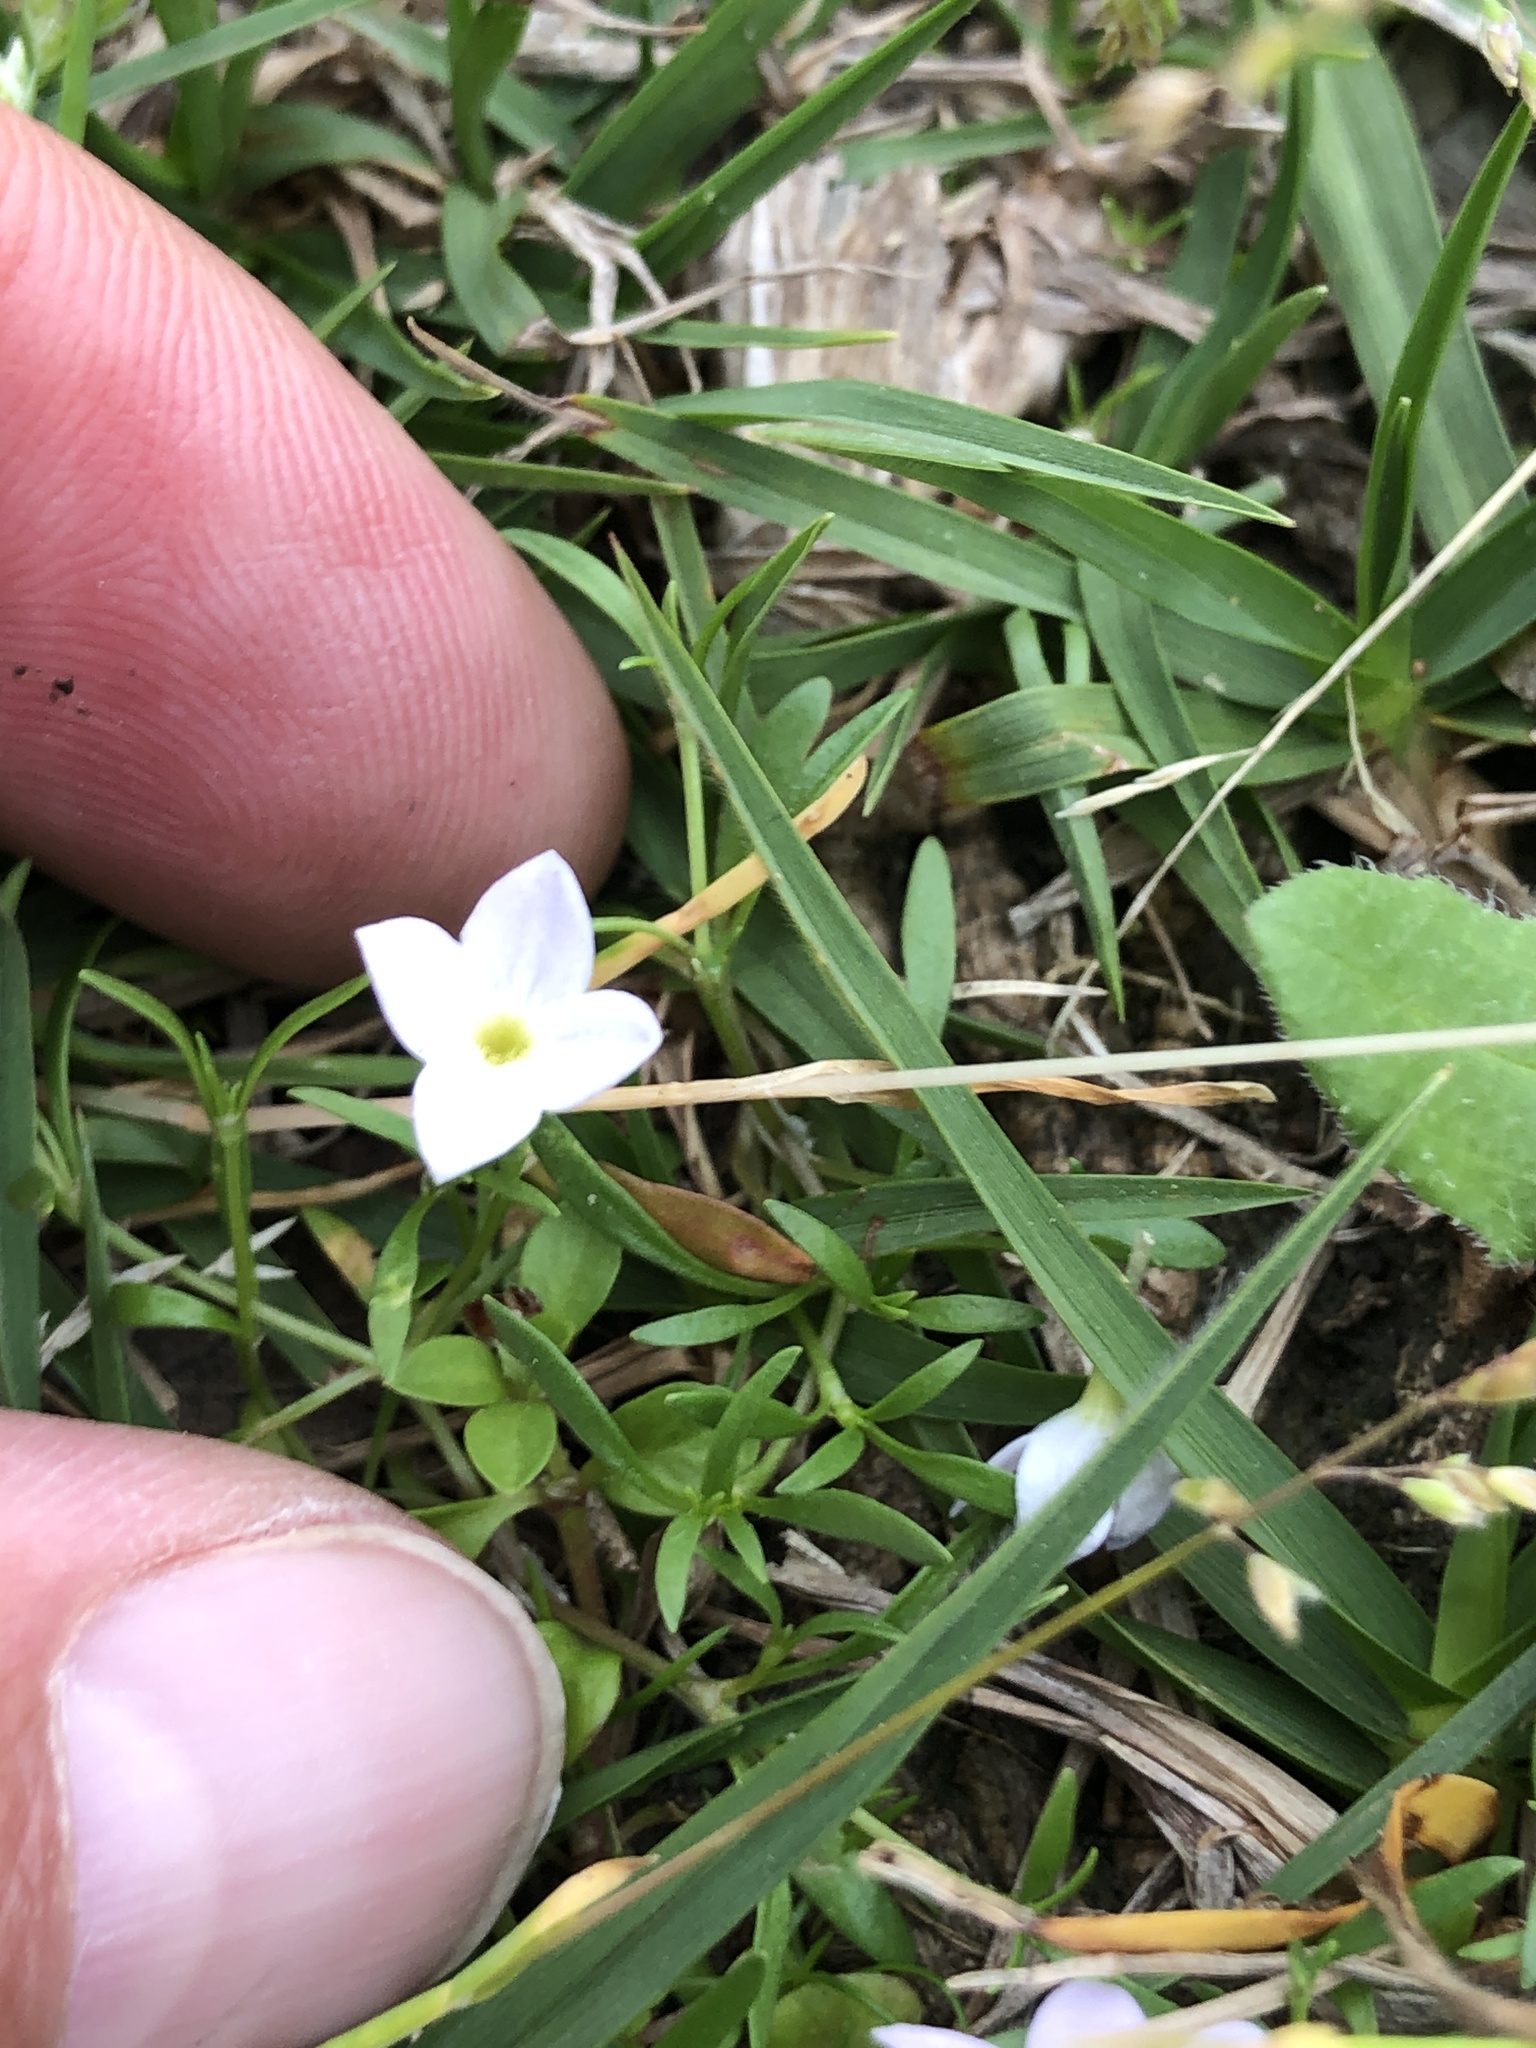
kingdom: Plantae
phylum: Tracheophyta
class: Magnoliopsida
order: Gentianales
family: Rubiaceae
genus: Houstonia
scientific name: Houstonia rosea
